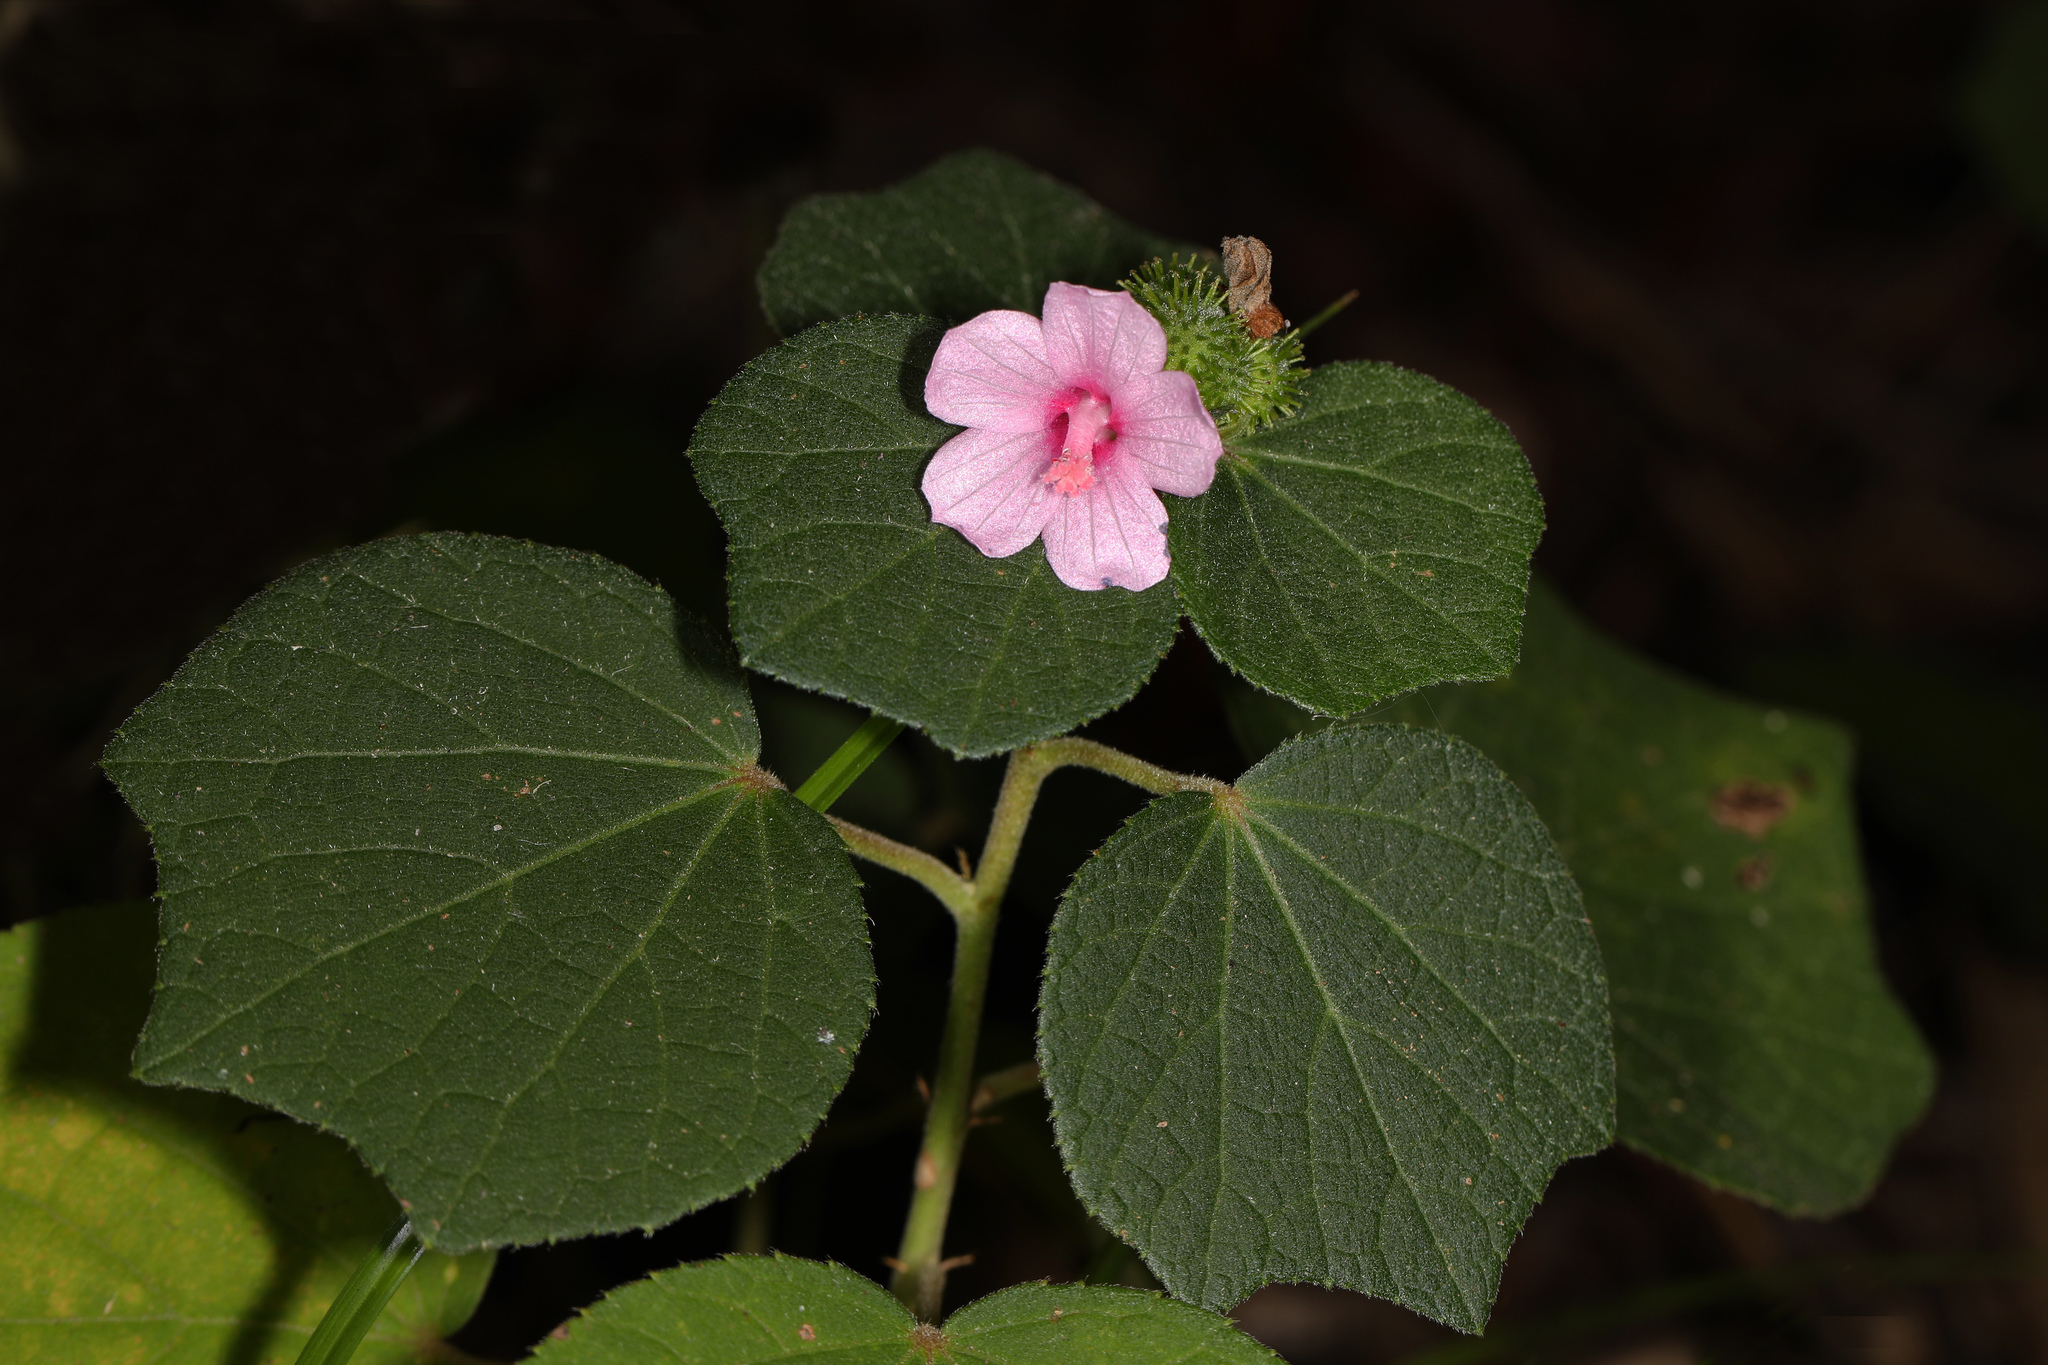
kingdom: Plantae
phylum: Tracheophyta
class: Magnoliopsida
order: Malvales
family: Malvaceae
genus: Urena
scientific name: Urena lobata
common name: Caesarweed
